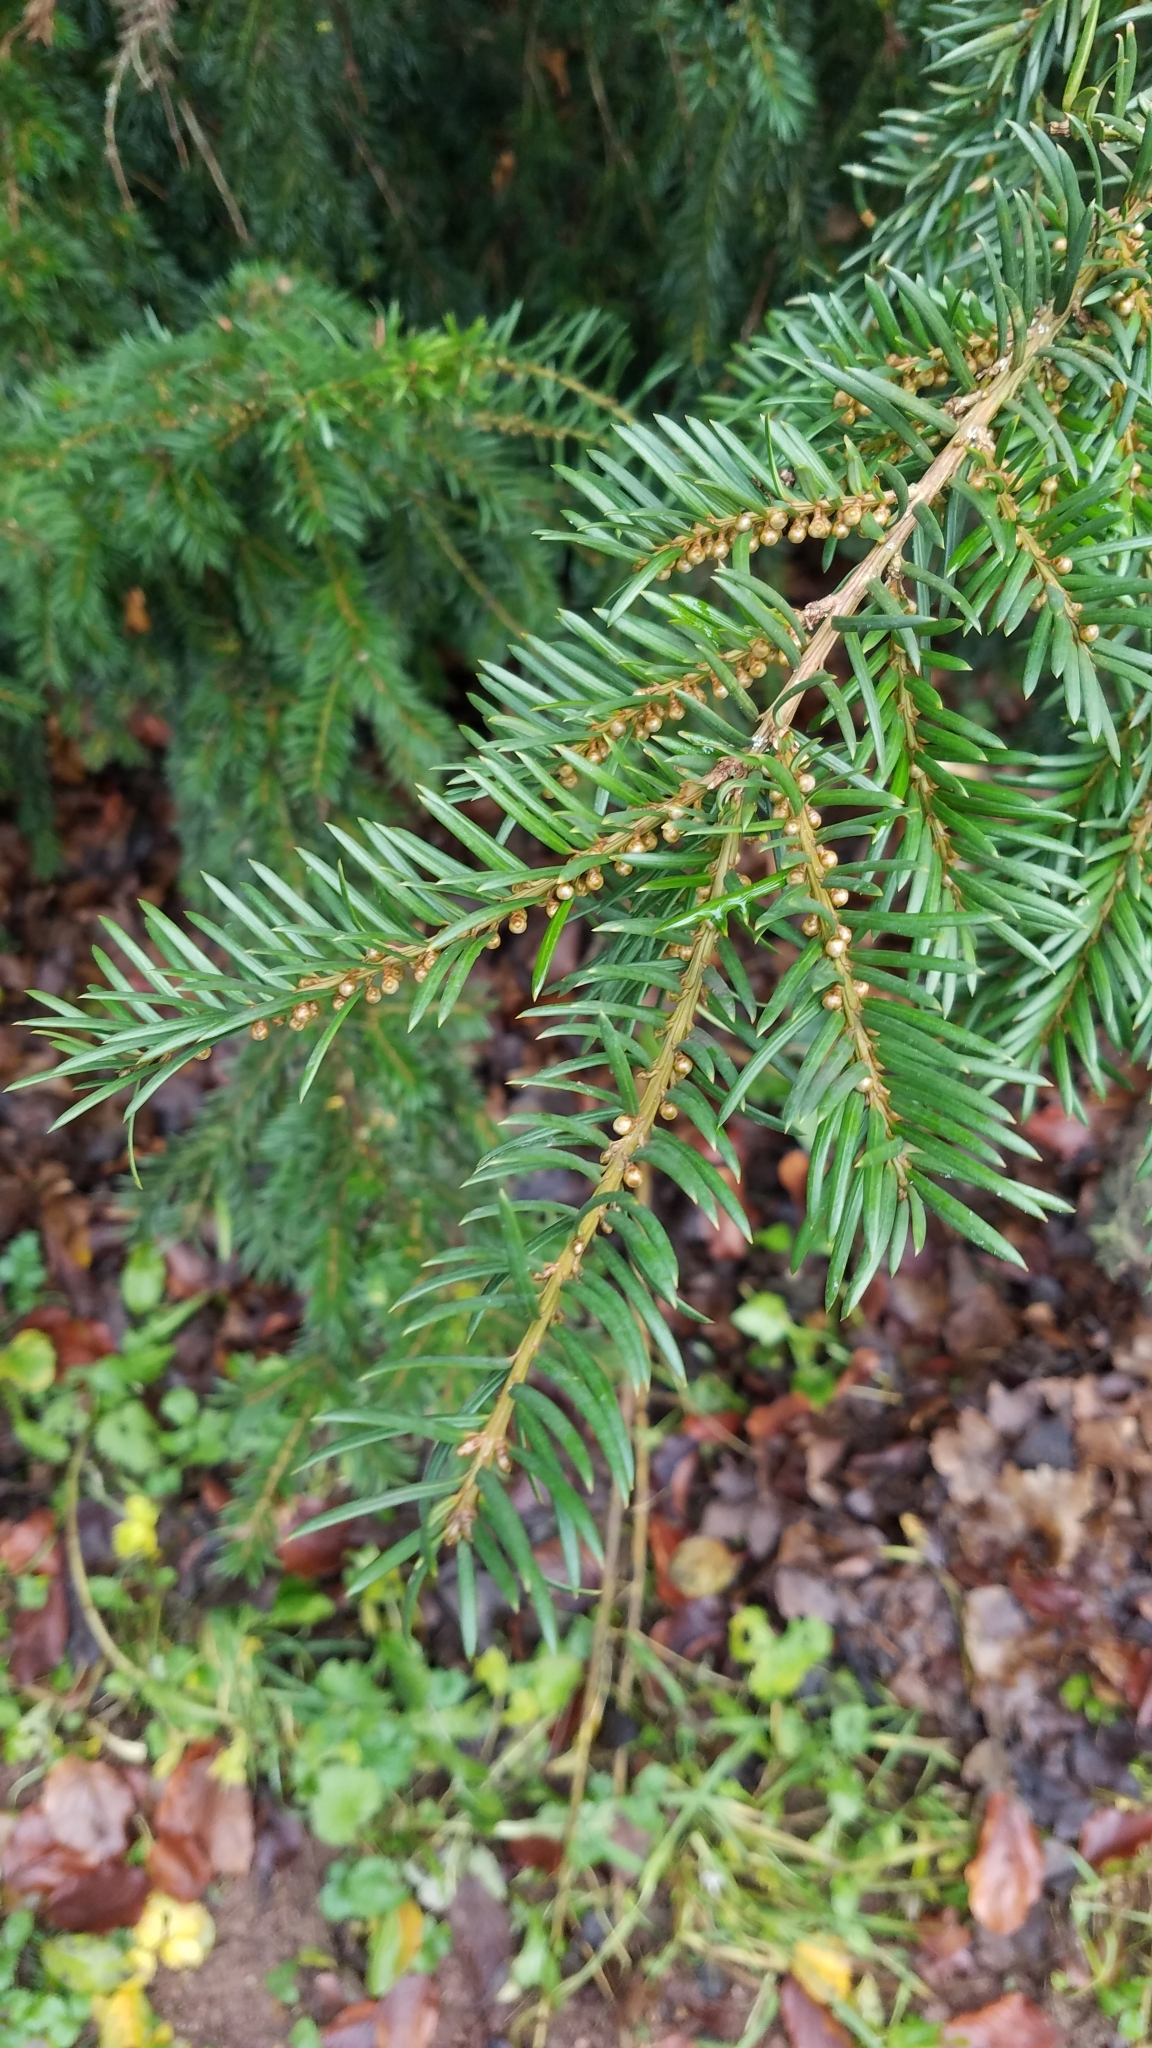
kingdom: Plantae
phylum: Tracheophyta
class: Pinopsida
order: Pinales
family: Taxaceae
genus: Taxus
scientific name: Taxus baccata
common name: Yew
